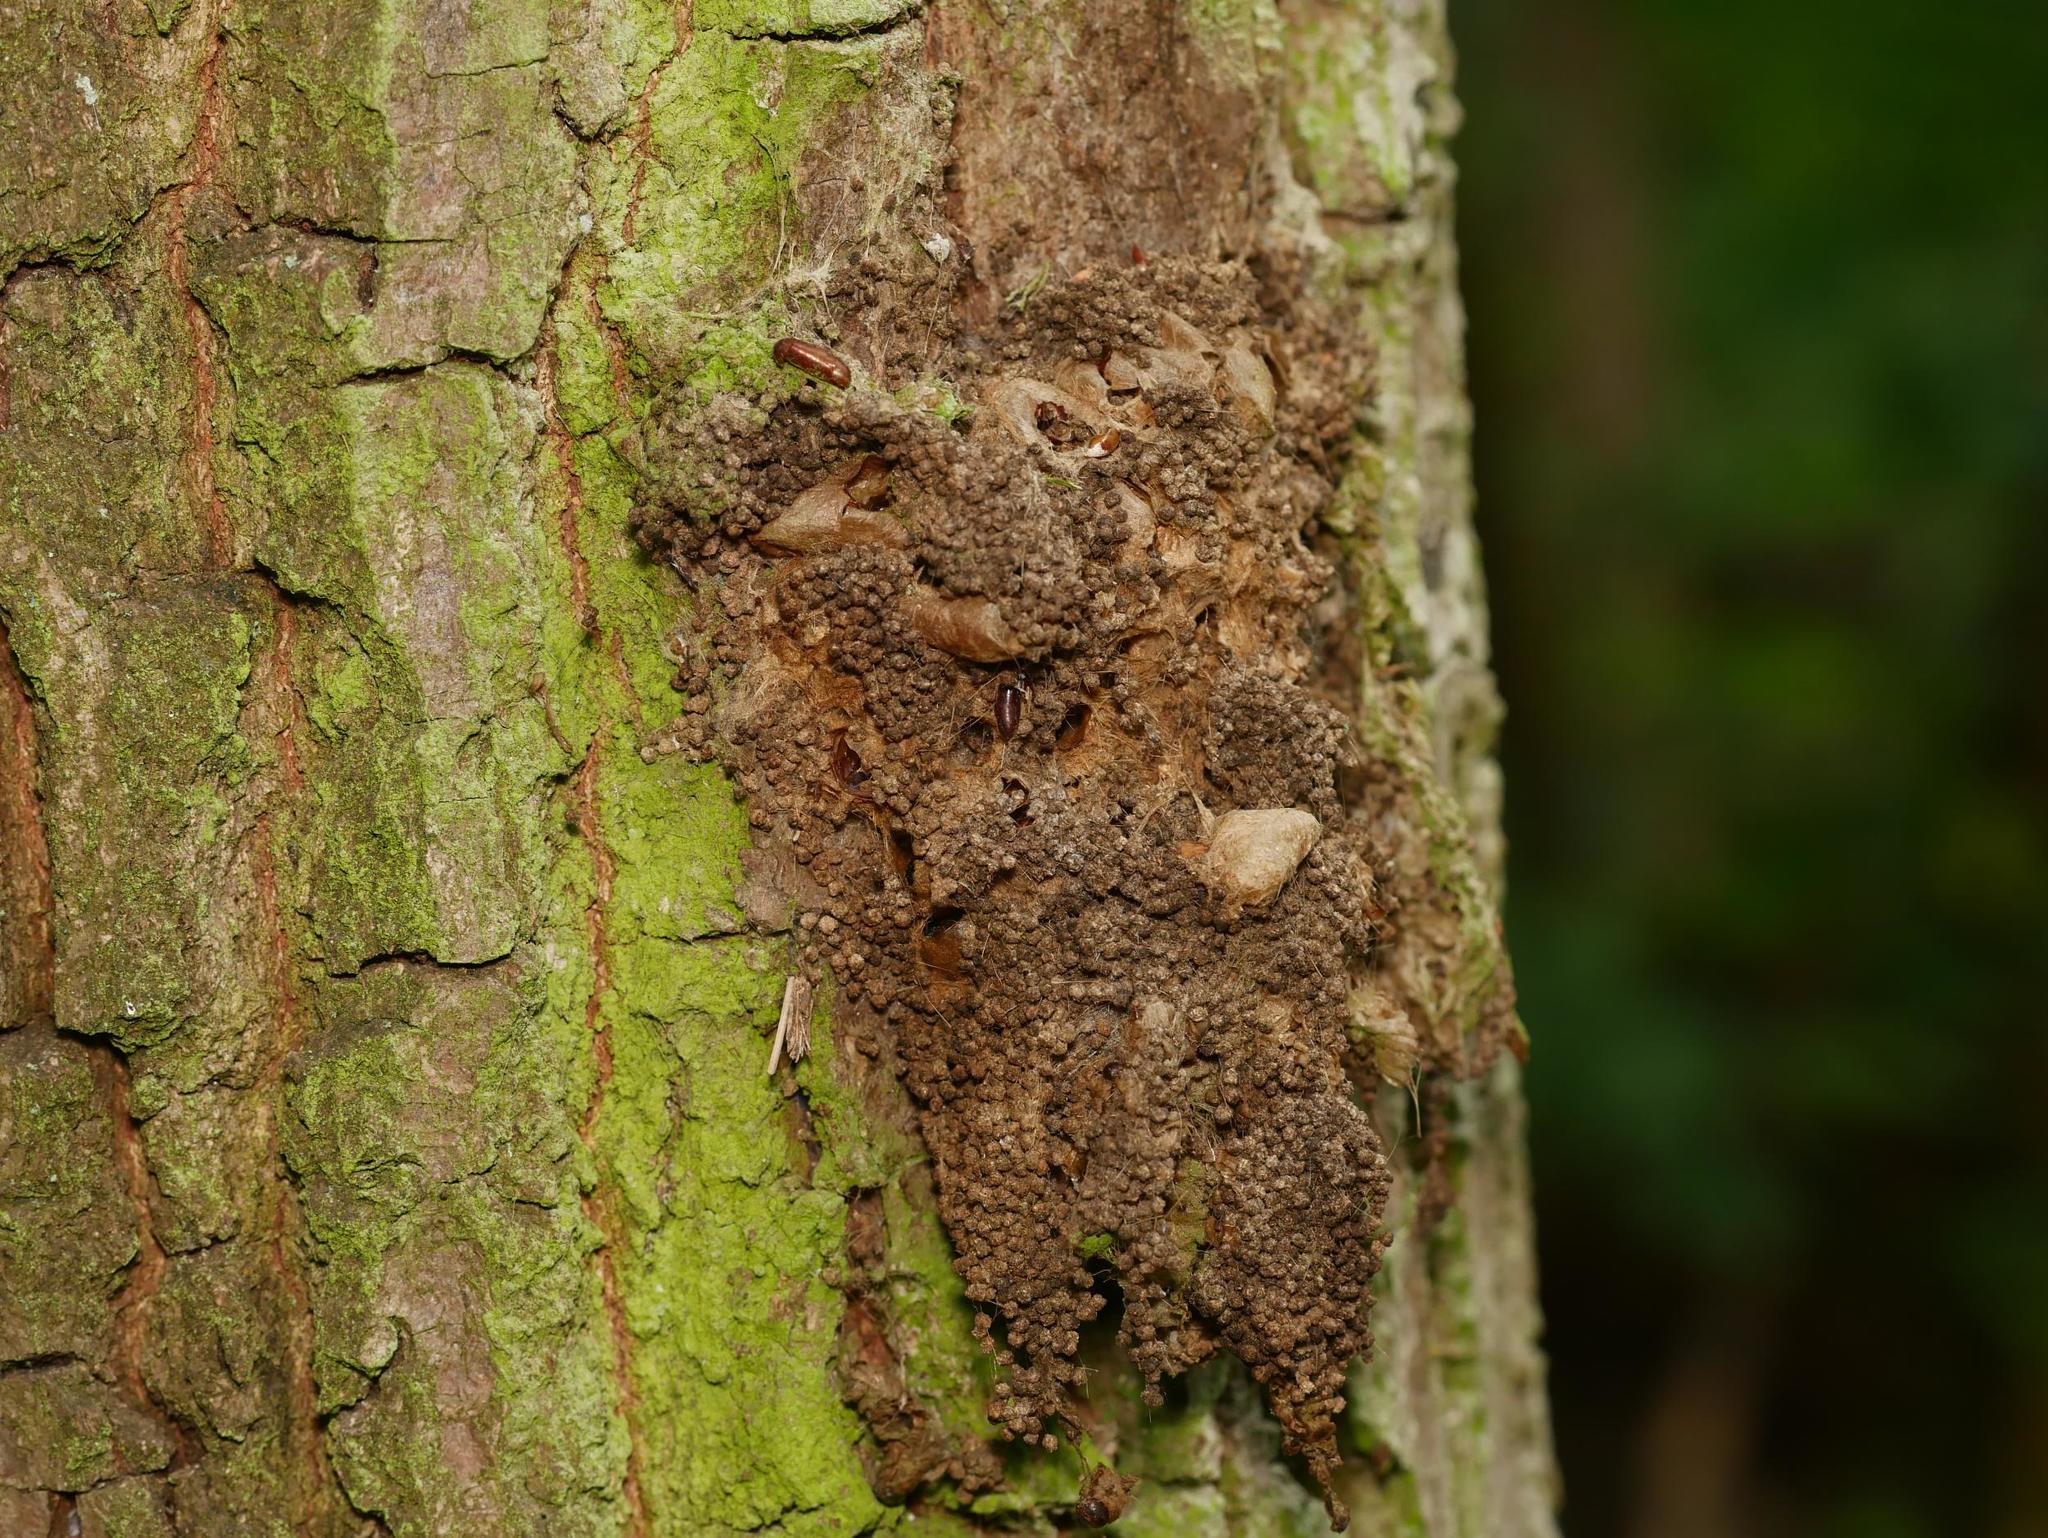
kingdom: Animalia
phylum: Arthropoda
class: Insecta
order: Lepidoptera
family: Notodontidae
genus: Thaumetopoea
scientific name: Thaumetopoea processionea
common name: Oak processionea
